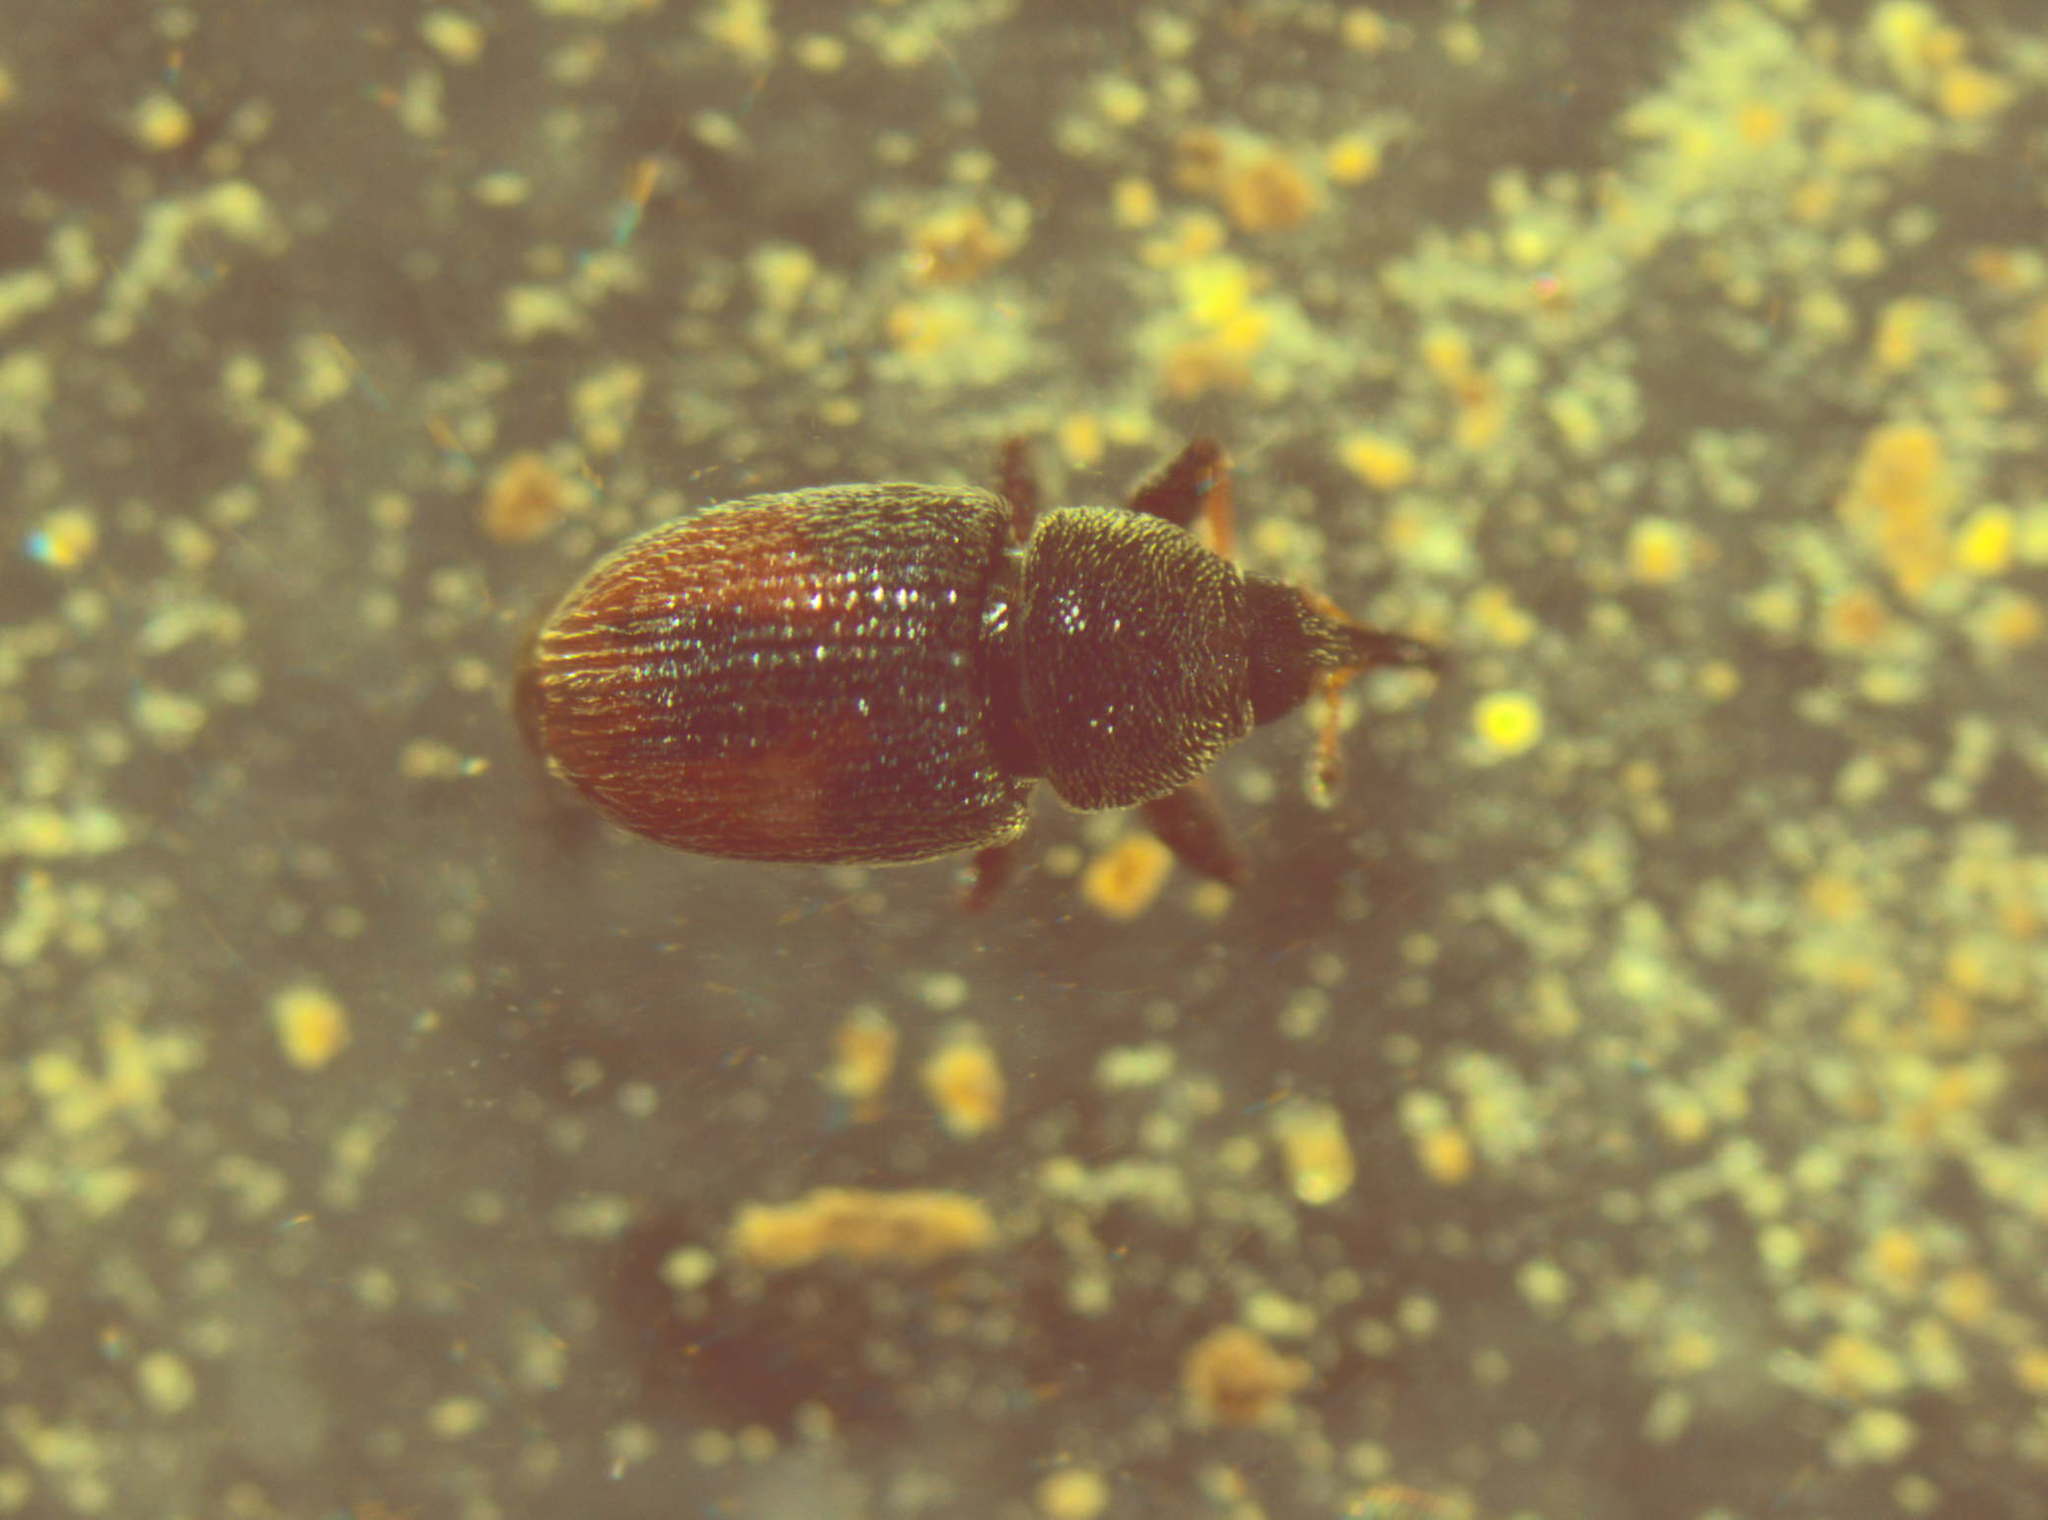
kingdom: Animalia
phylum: Arthropoda
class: Insecta
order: Coleoptera
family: Curculionidae
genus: Mecinus
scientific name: Mecinus pascuorum
